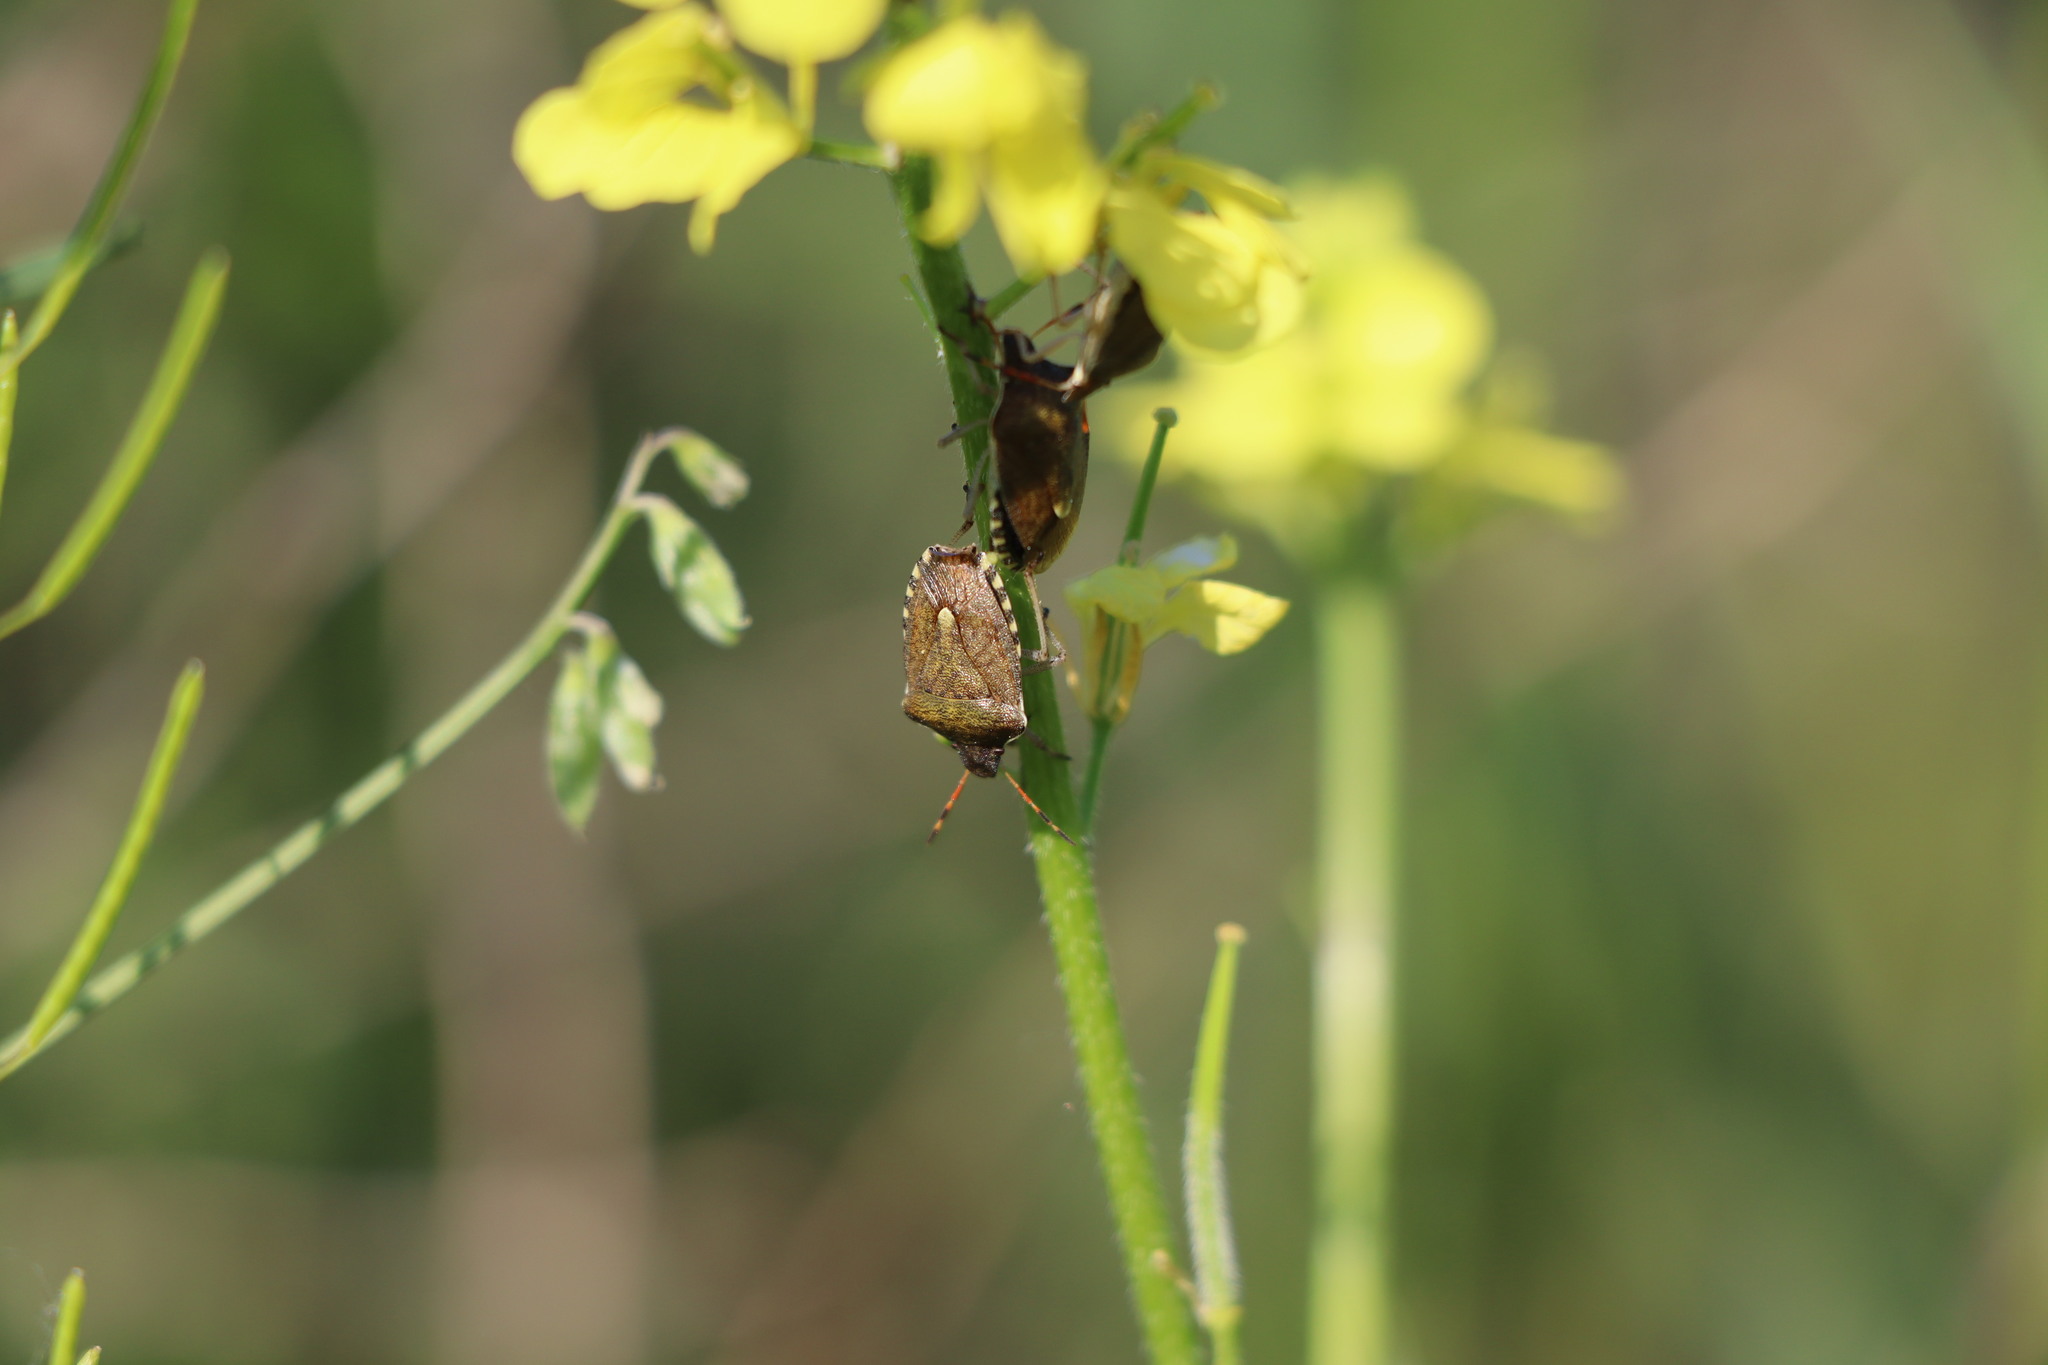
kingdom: Animalia
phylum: Arthropoda
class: Insecta
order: Hemiptera
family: Pentatomidae
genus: Holcostethus
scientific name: Holcostethus strictus
